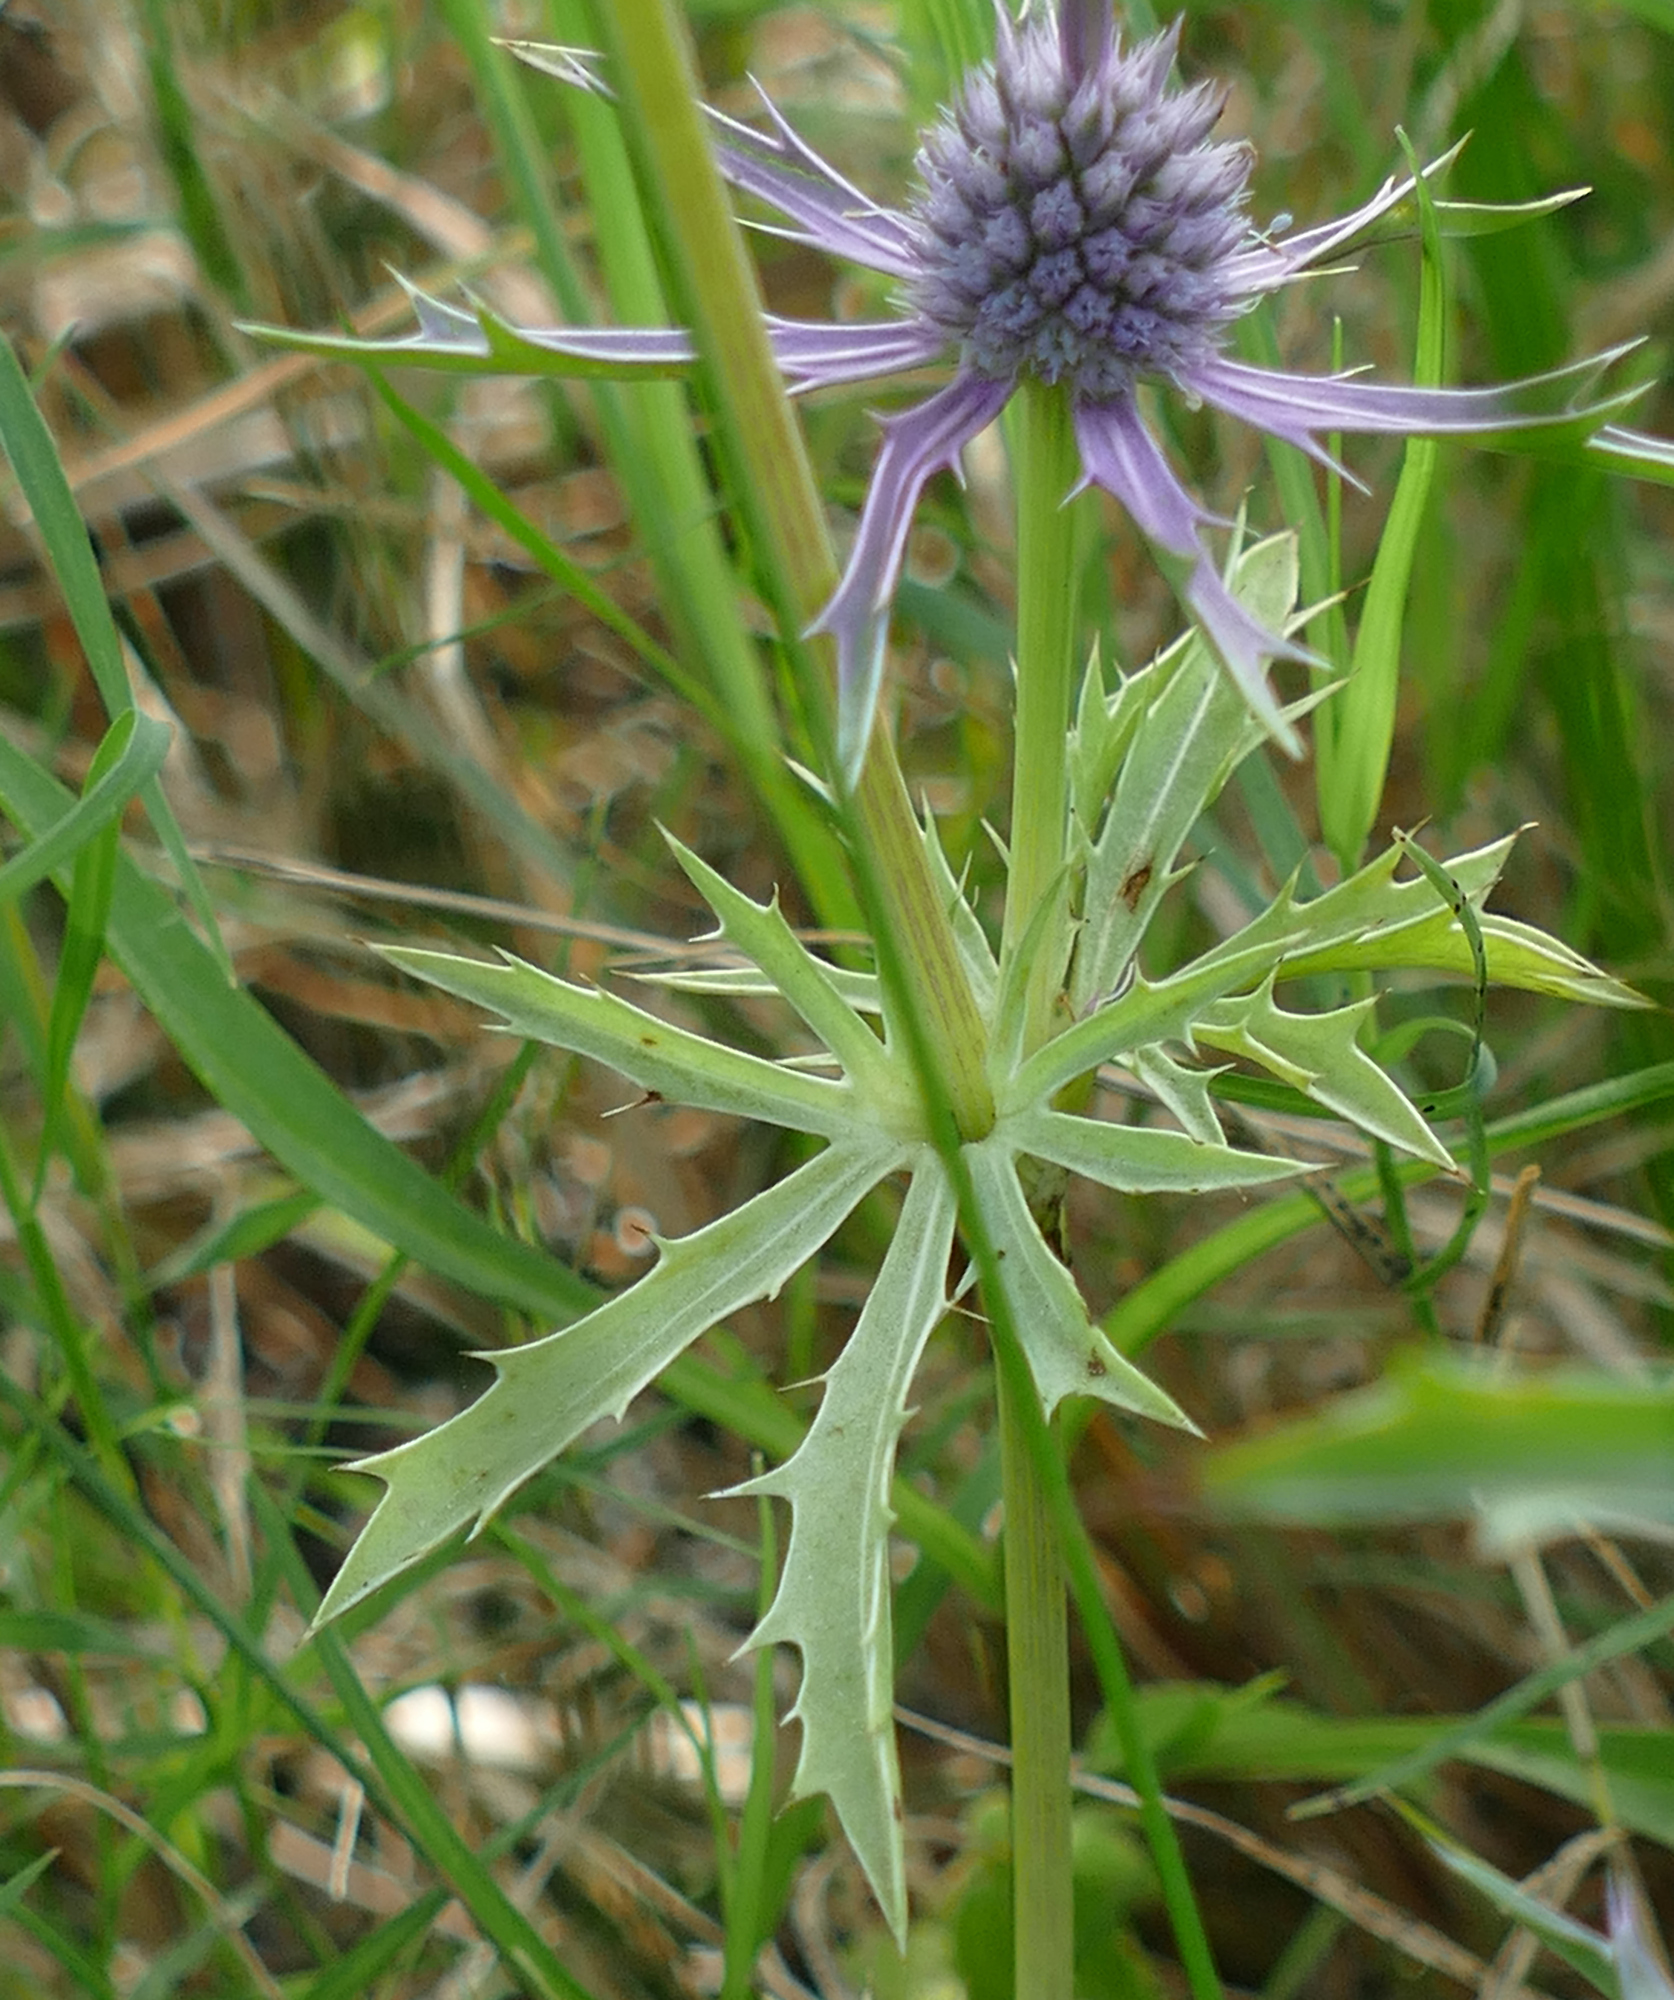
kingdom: Plantae
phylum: Tracheophyta
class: Magnoliopsida
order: Apiales
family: Apiaceae
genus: Eryngium
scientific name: Eryngium hookeri
